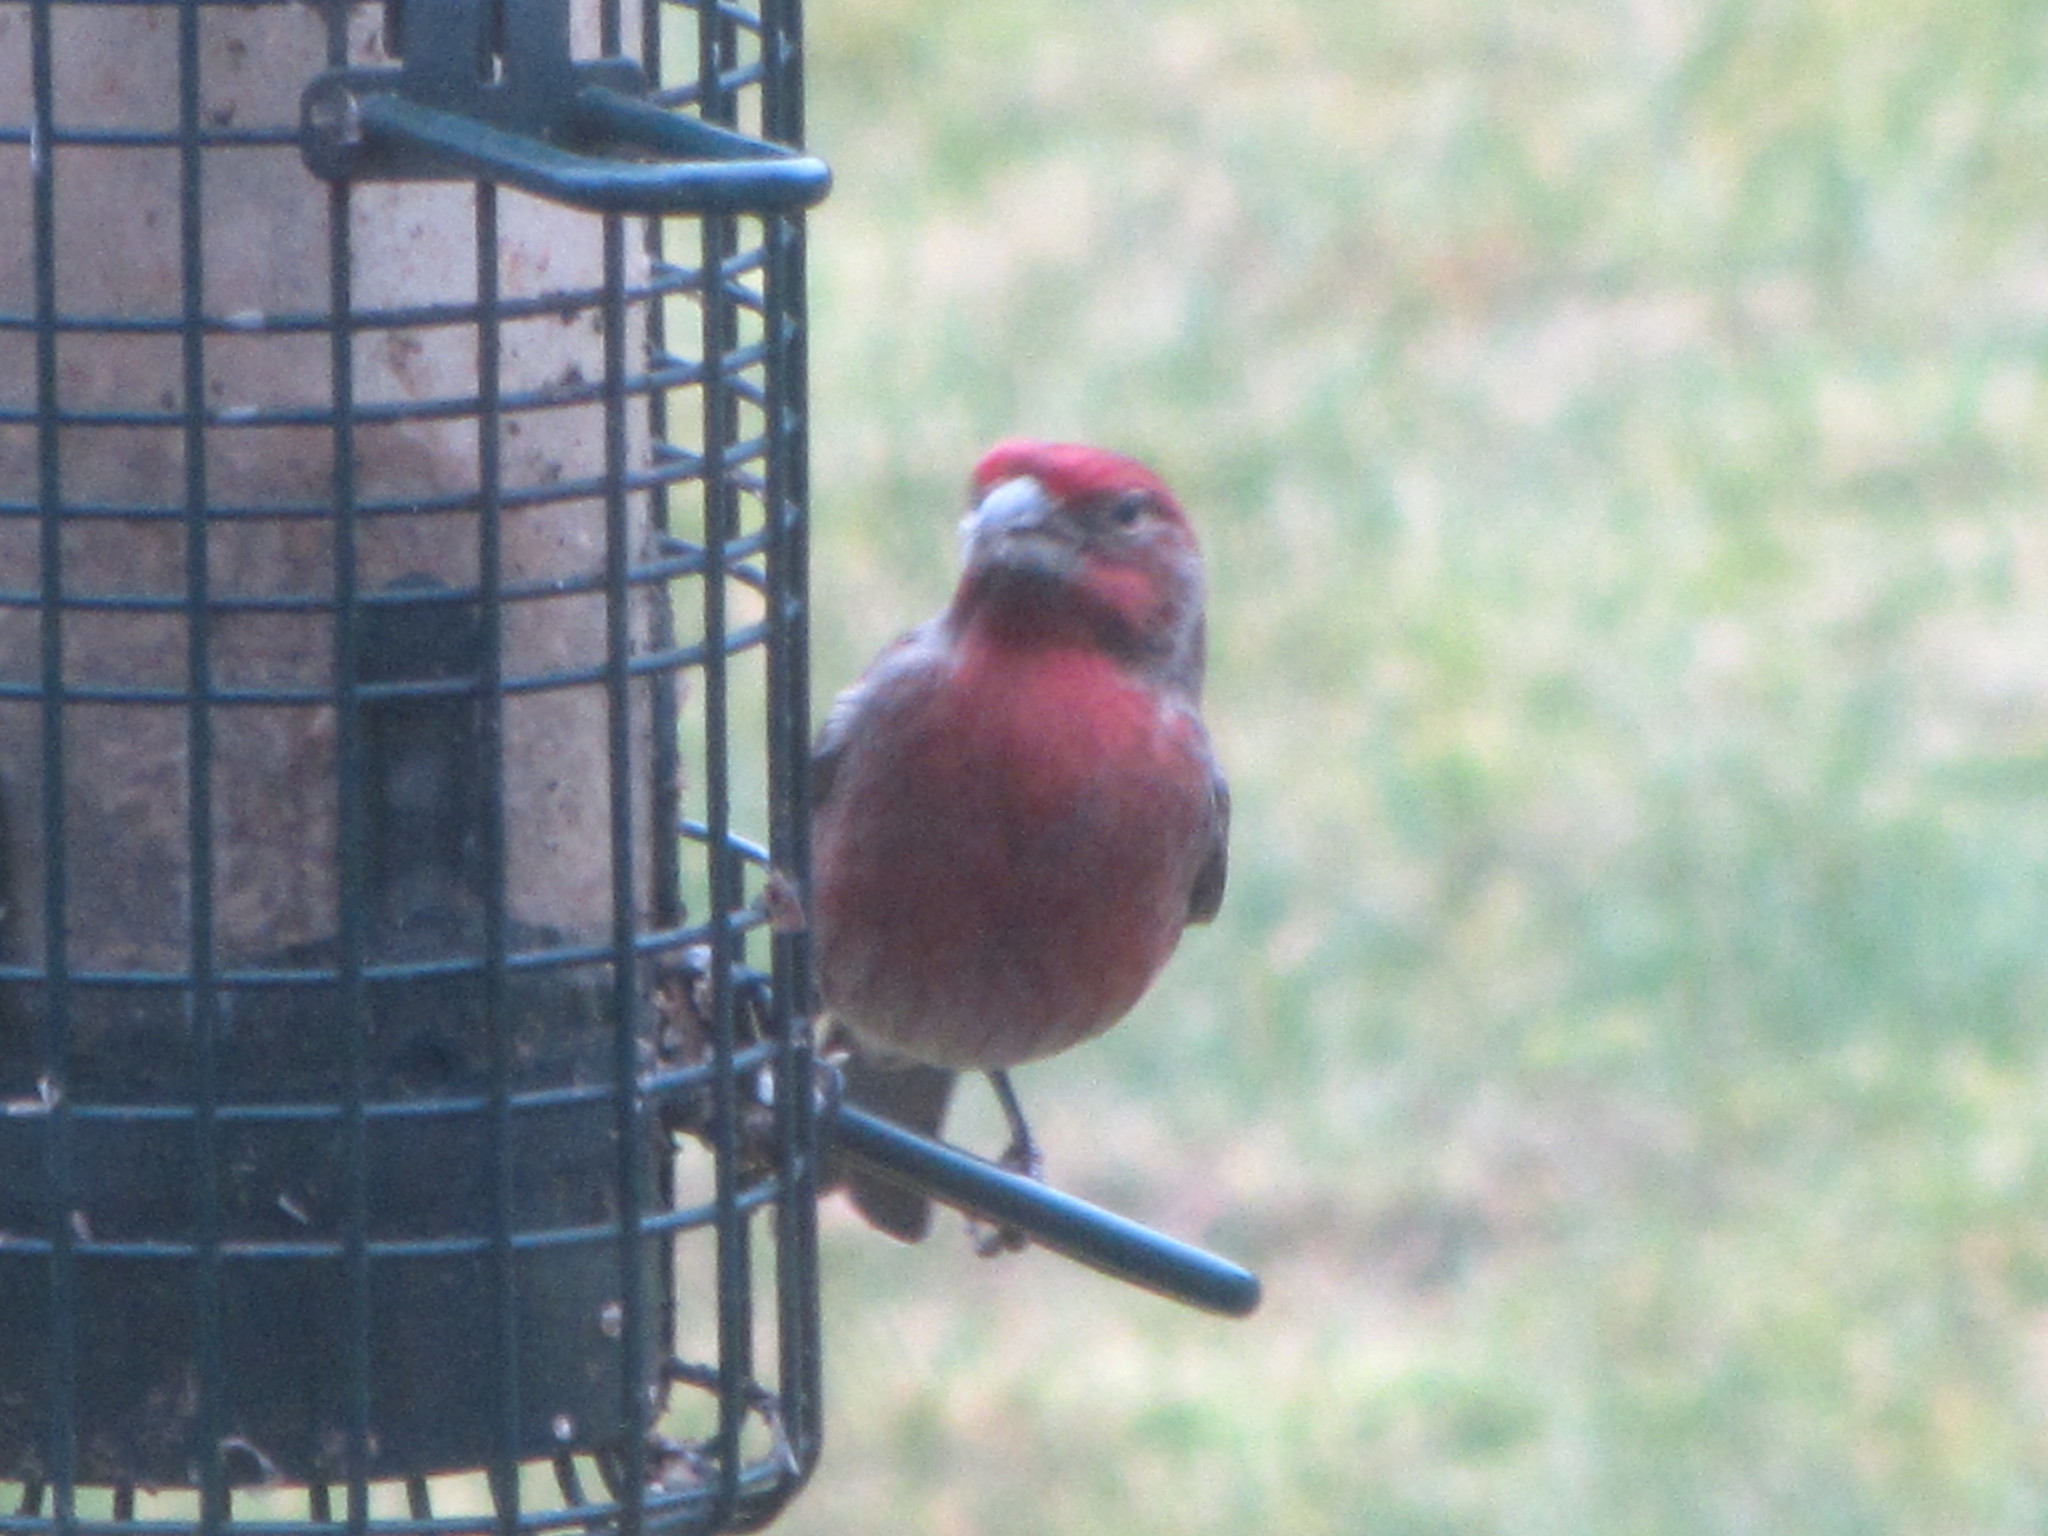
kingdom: Animalia
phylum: Chordata
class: Aves
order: Passeriformes
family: Fringillidae
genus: Haemorhous
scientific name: Haemorhous mexicanus
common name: House finch
